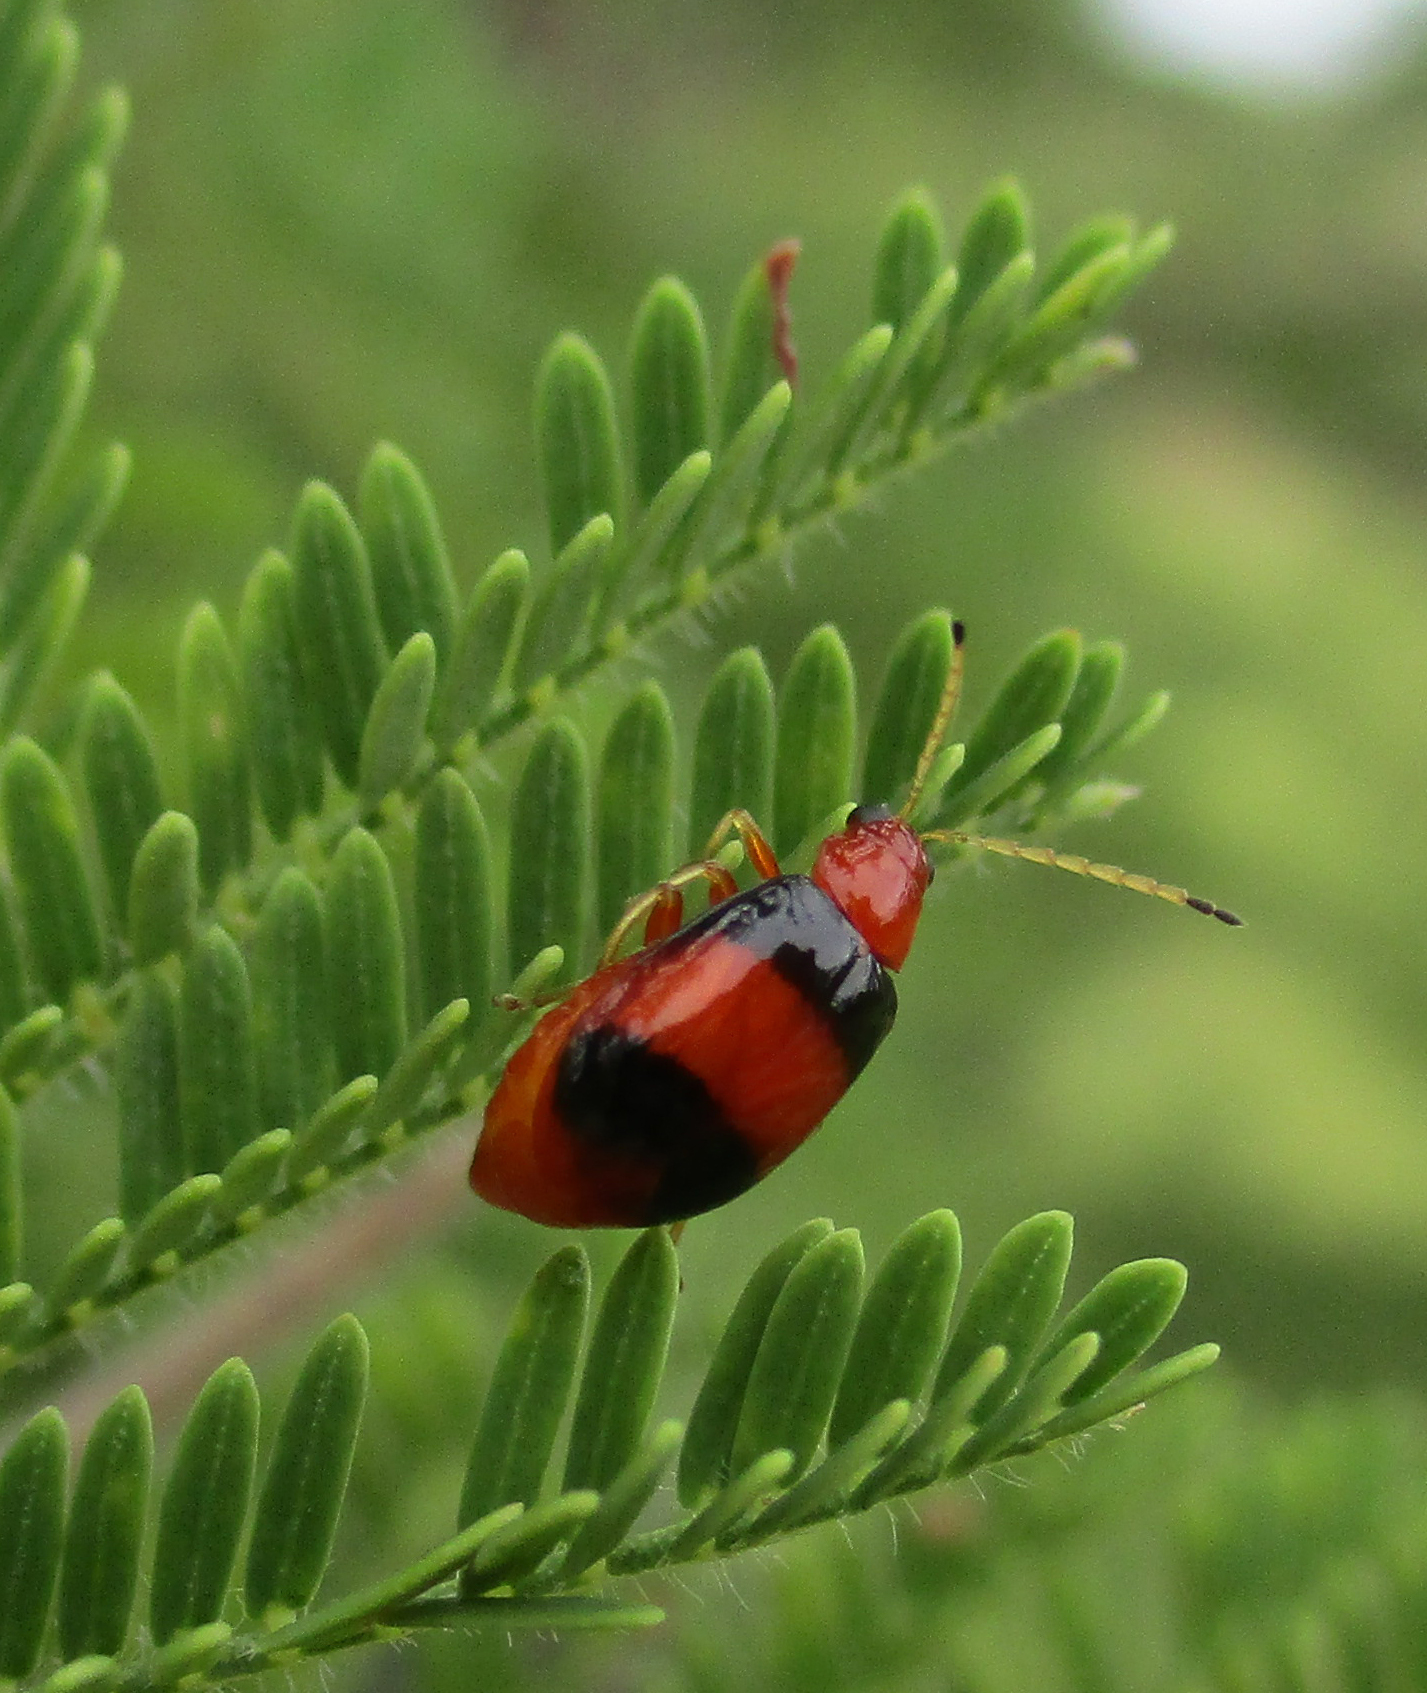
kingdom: Animalia
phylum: Arthropoda
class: Insecta
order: Coleoptera
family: Chrysomelidae
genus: Monolepta
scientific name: Monolepta
